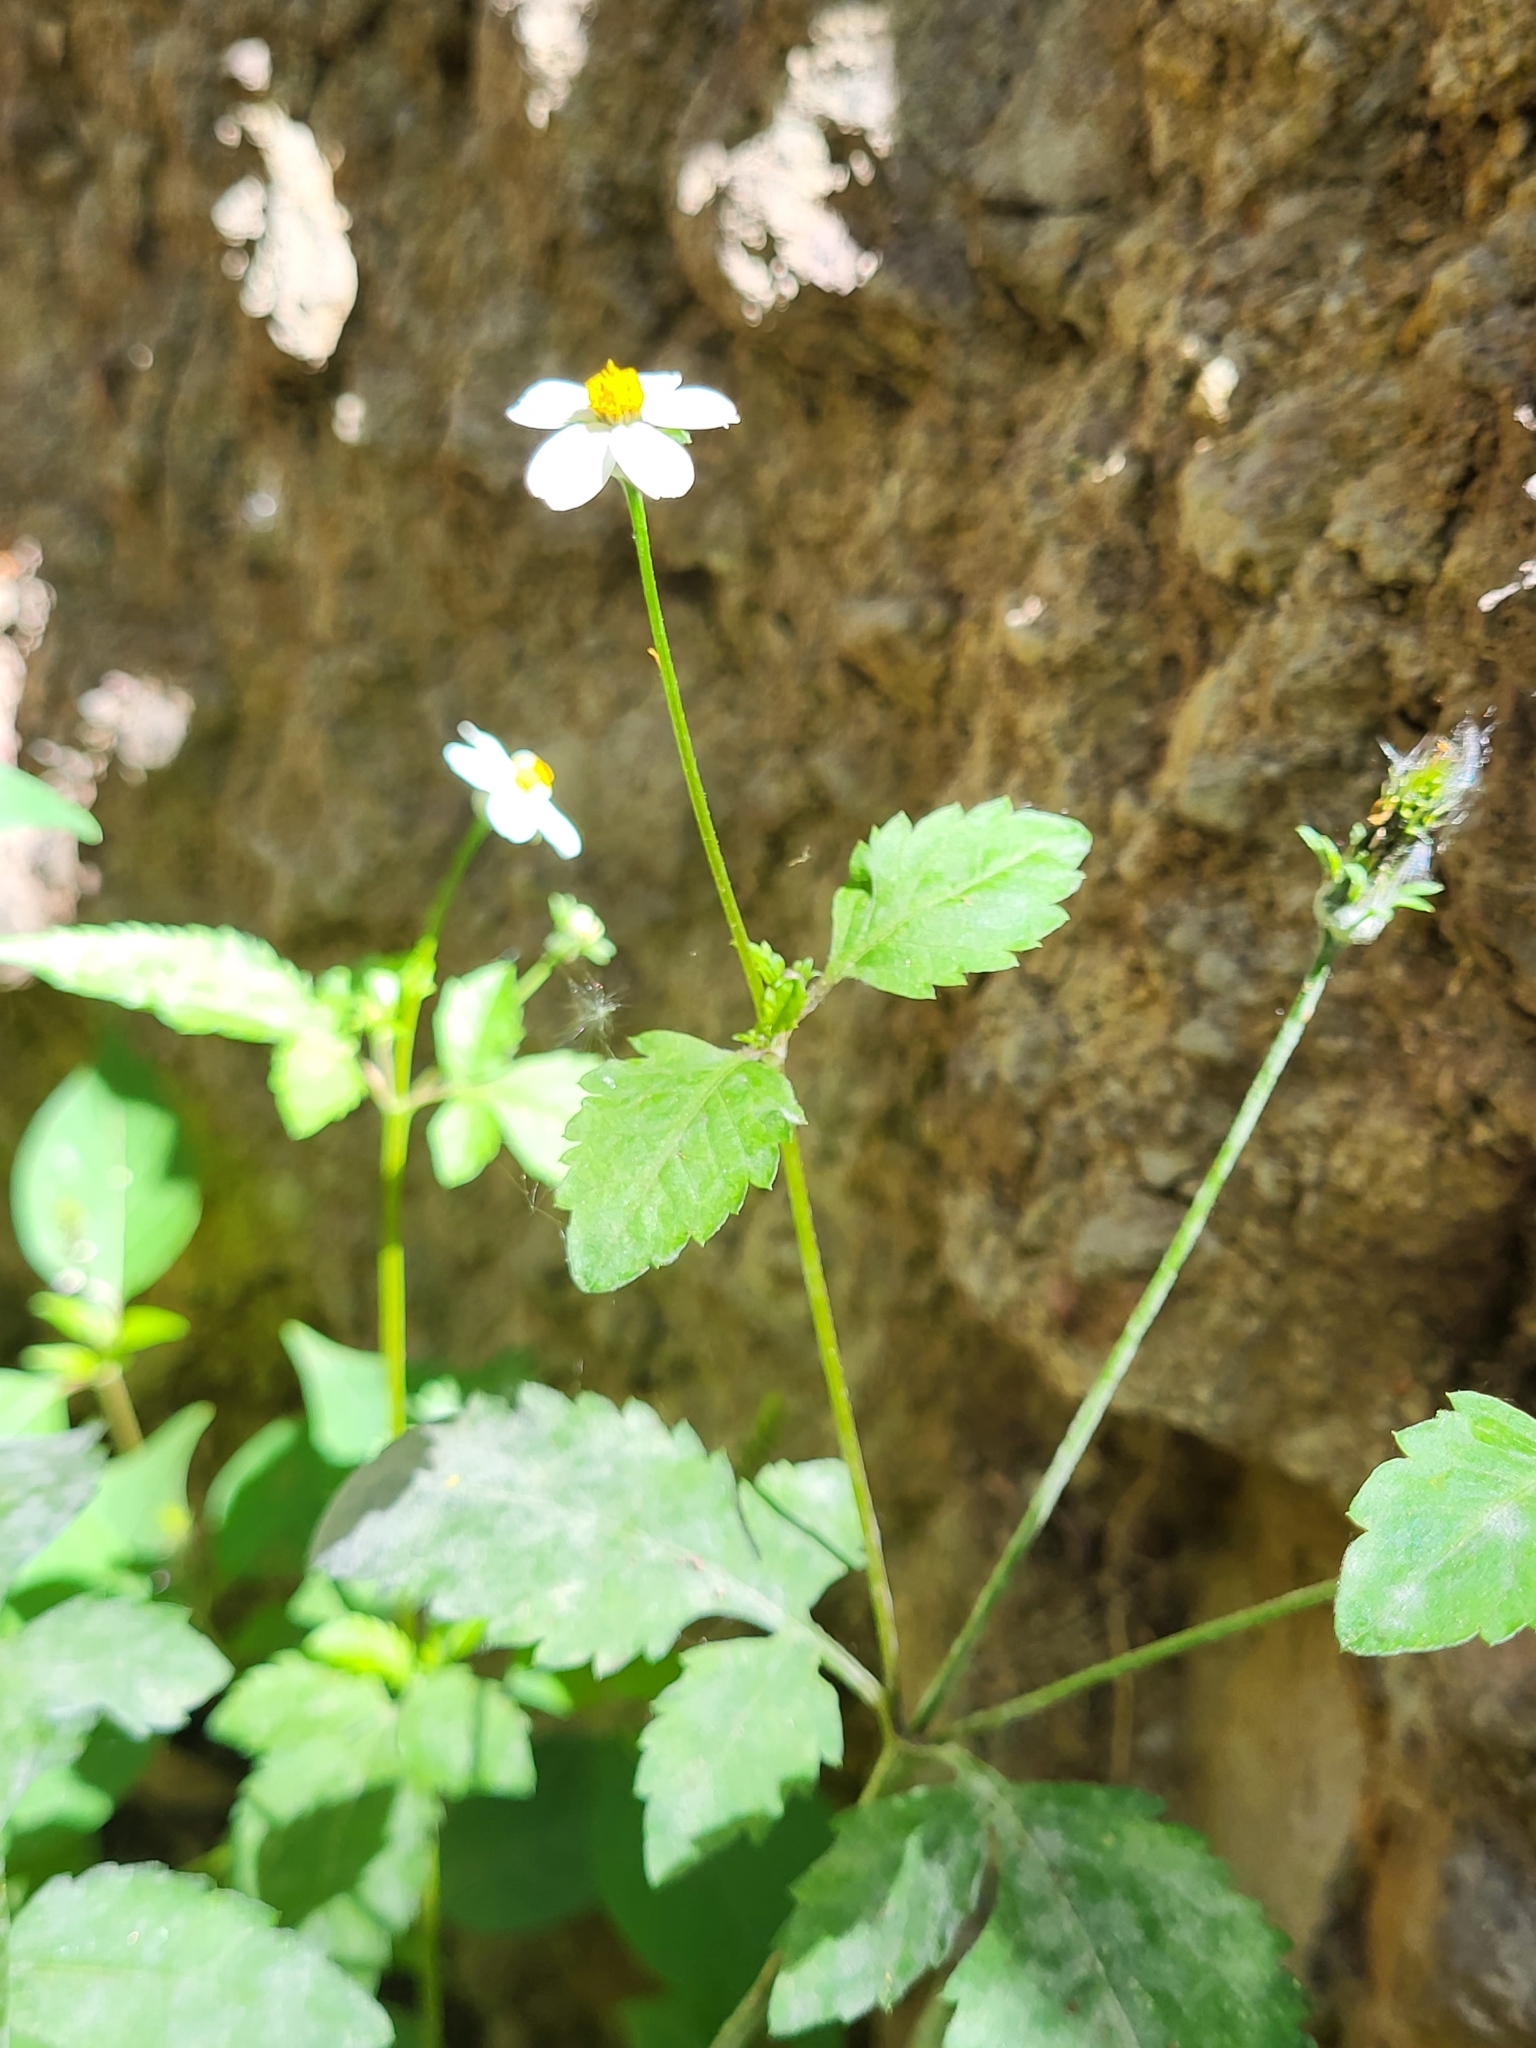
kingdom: Plantae
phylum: Tracheophyta
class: Magnoliopsida
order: Asterales
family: Asteraceae
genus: Bidens
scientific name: Bidens pilosa
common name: Black-jack
